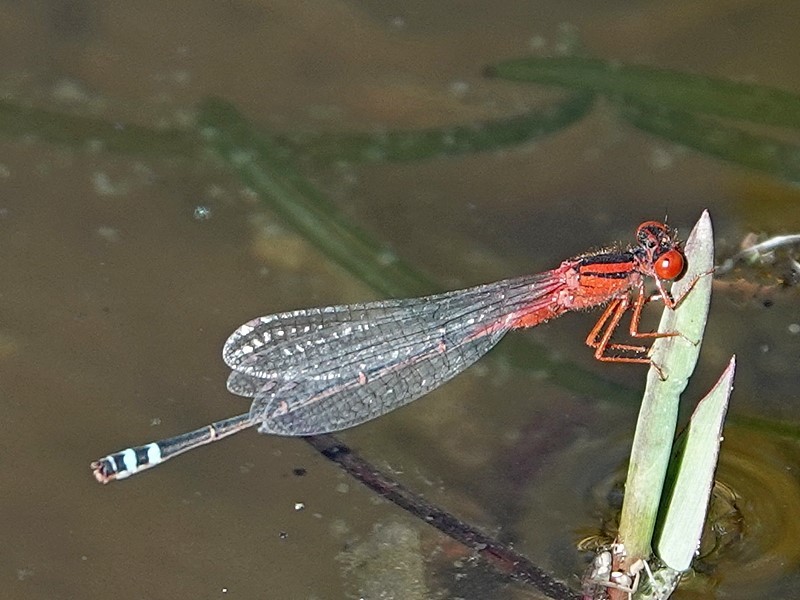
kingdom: Animalia
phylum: Arthropoda
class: Insecta
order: Odonata
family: Coenagrionidae
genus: Xanthagrion
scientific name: Xanthagrion erythroneurum
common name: Red and blue damsel
